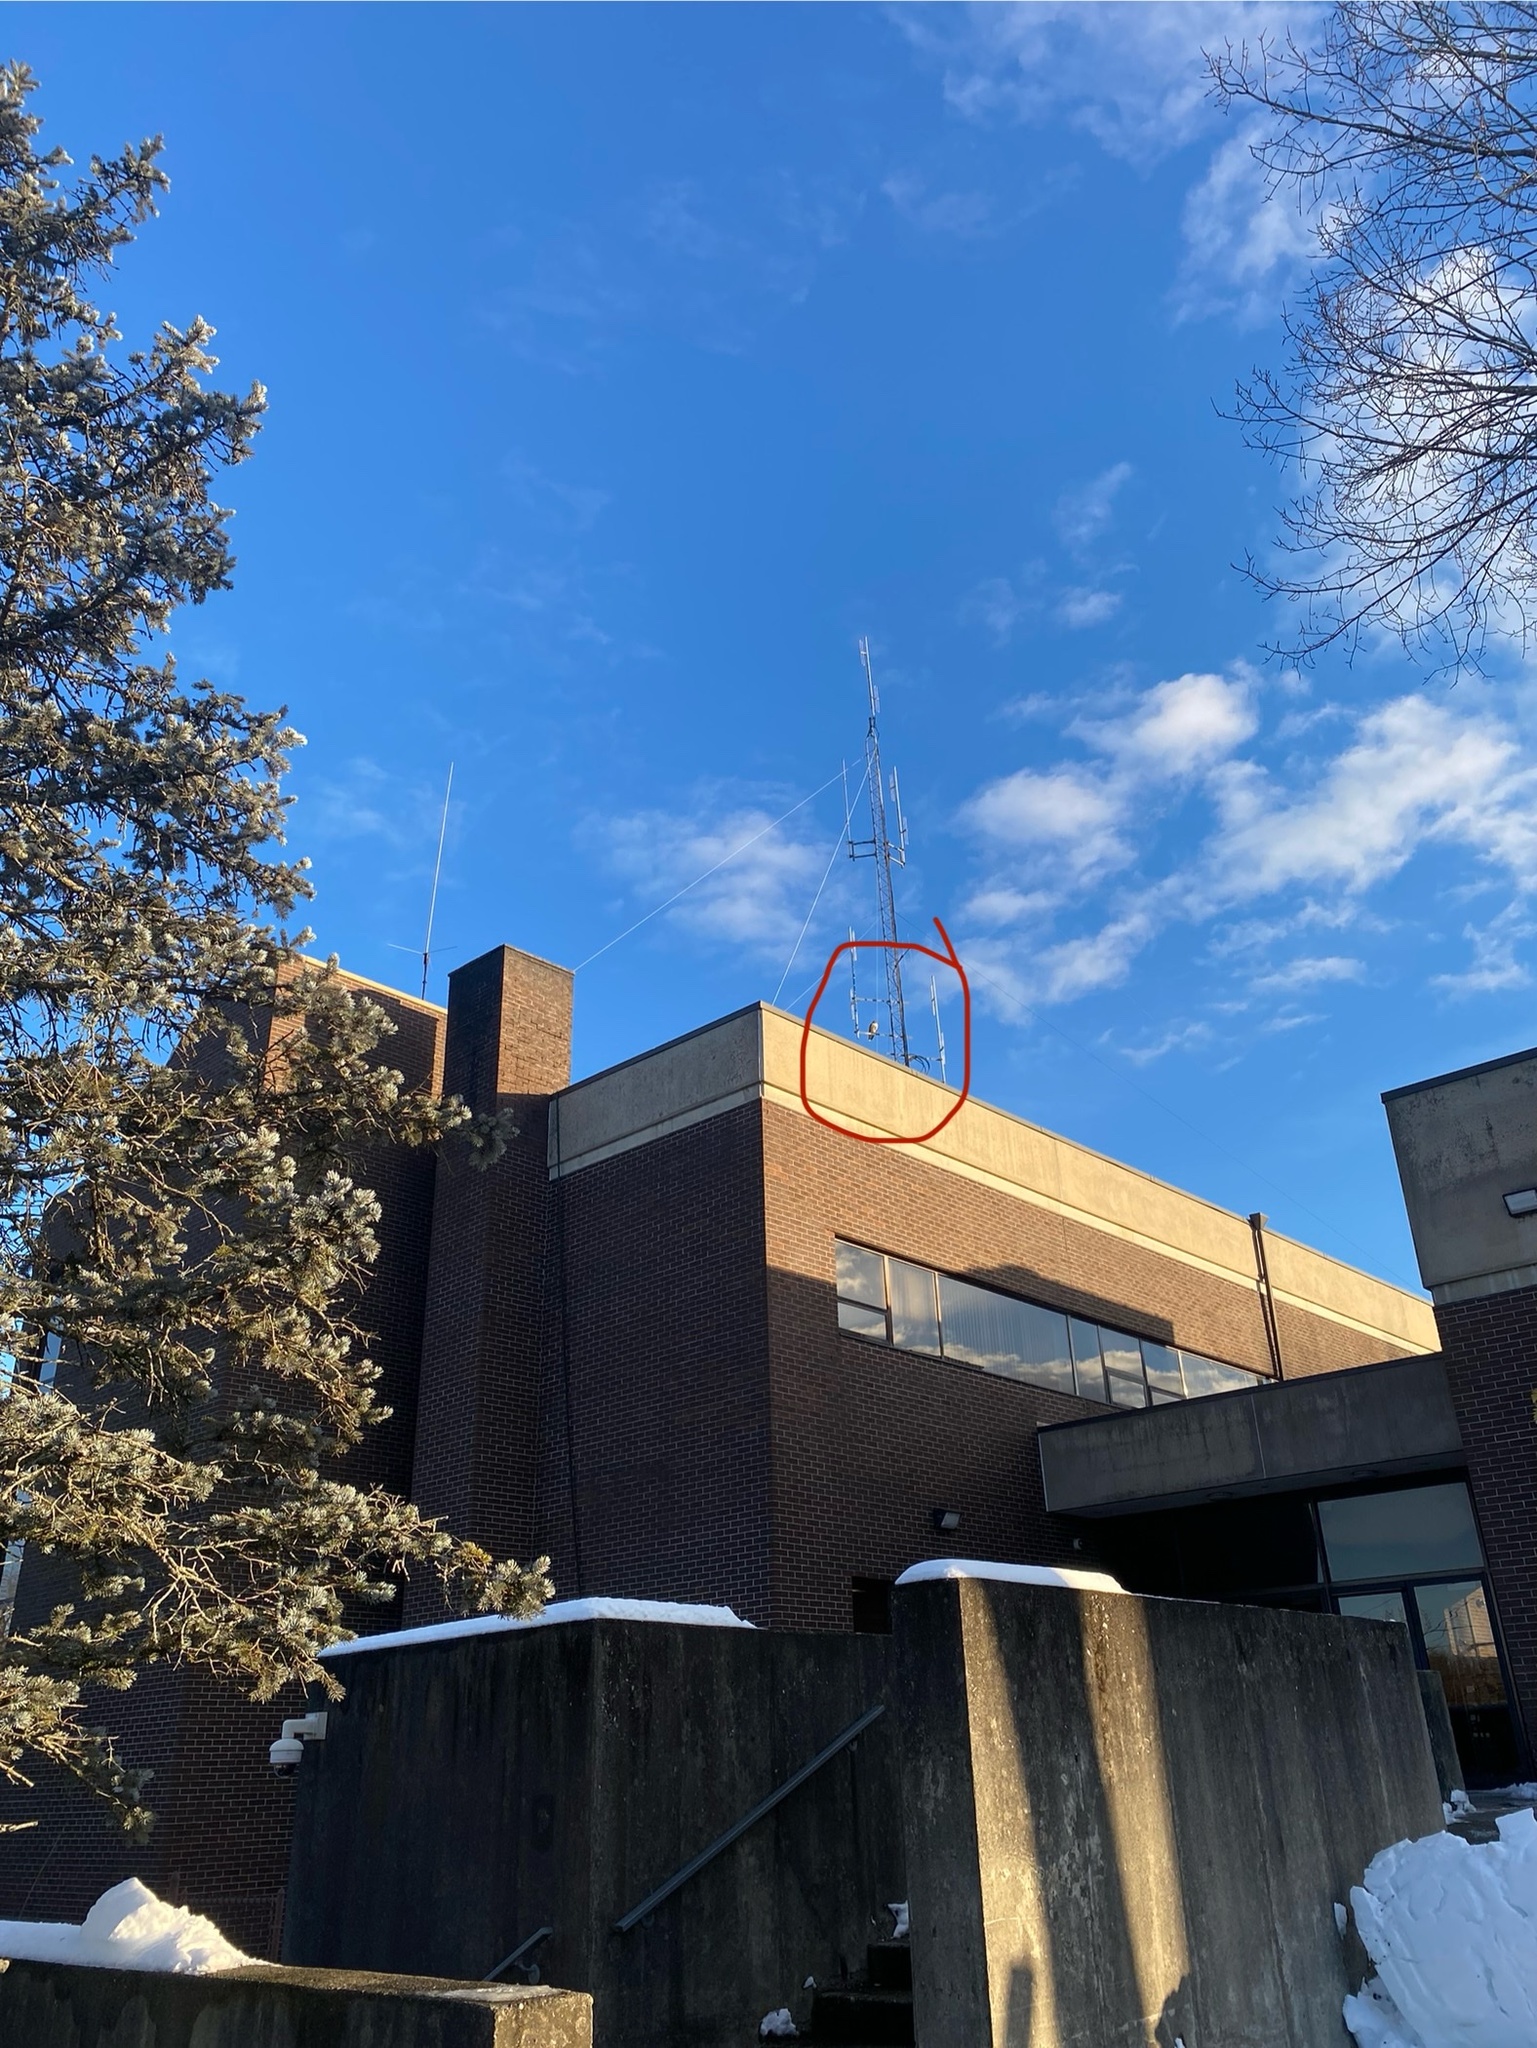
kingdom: Animalia
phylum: Chordata
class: Aves
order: Accipitriformes
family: Accipitridae
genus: Buteo
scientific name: Buteo jamaicensis
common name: Red-tailed hawk
